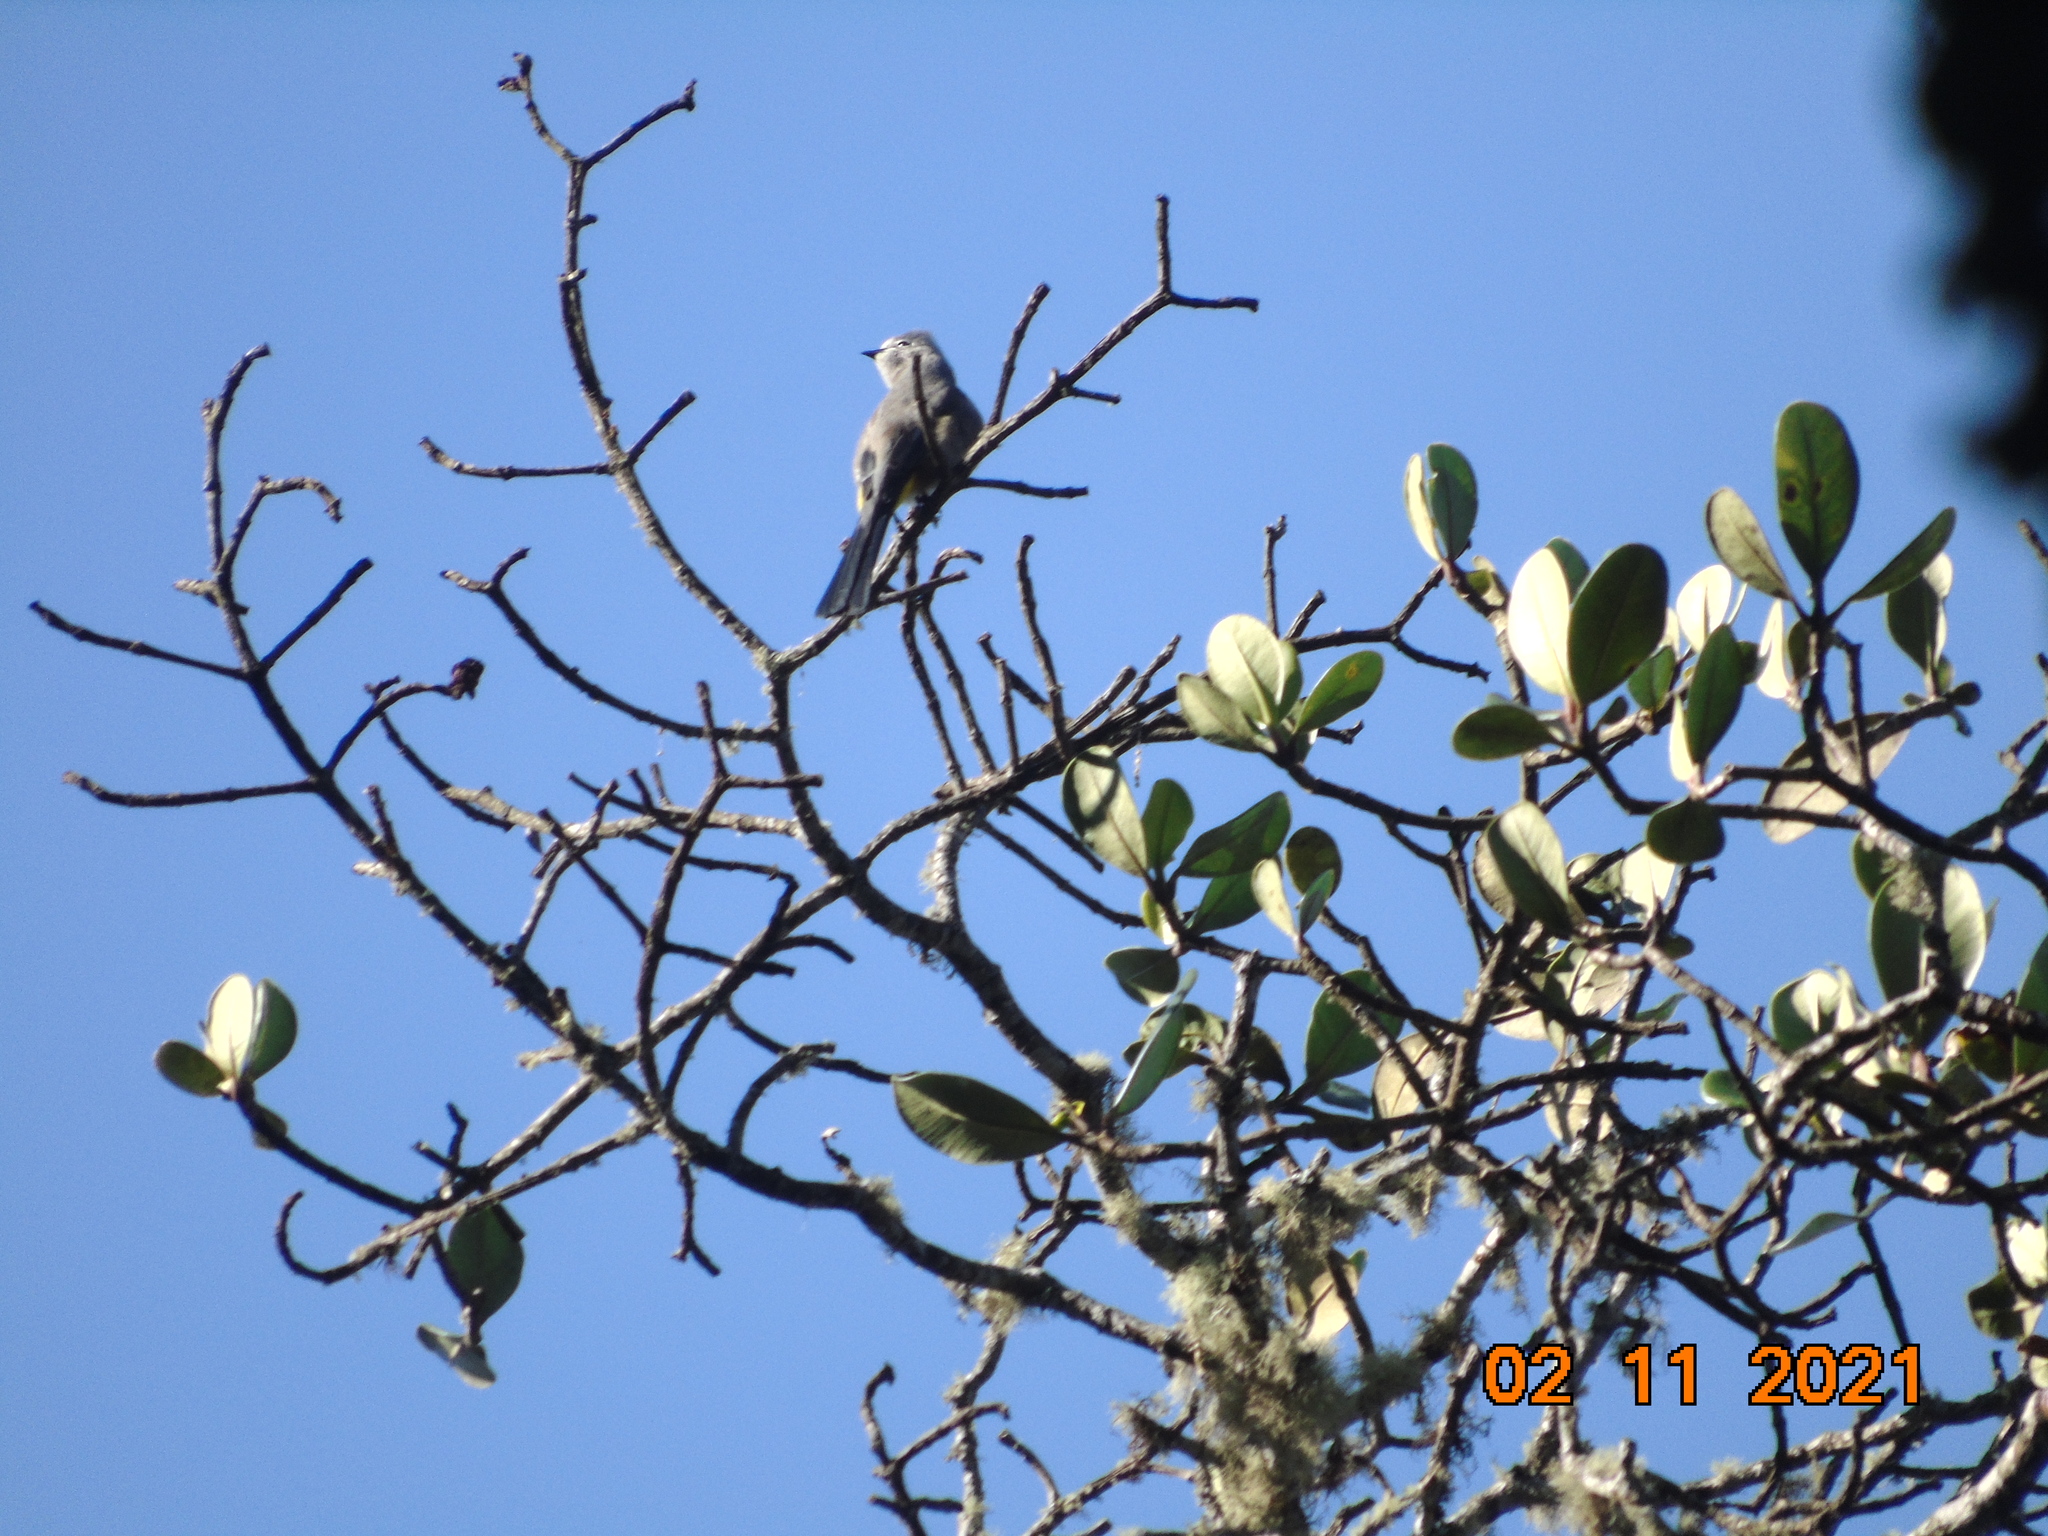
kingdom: Animalia
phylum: Chordata
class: Aves
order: Passeriformes
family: Ptilogonatidae
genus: Ptilogonys
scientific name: Ptilogonys cinereus
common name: Gray silky-flycatcher
